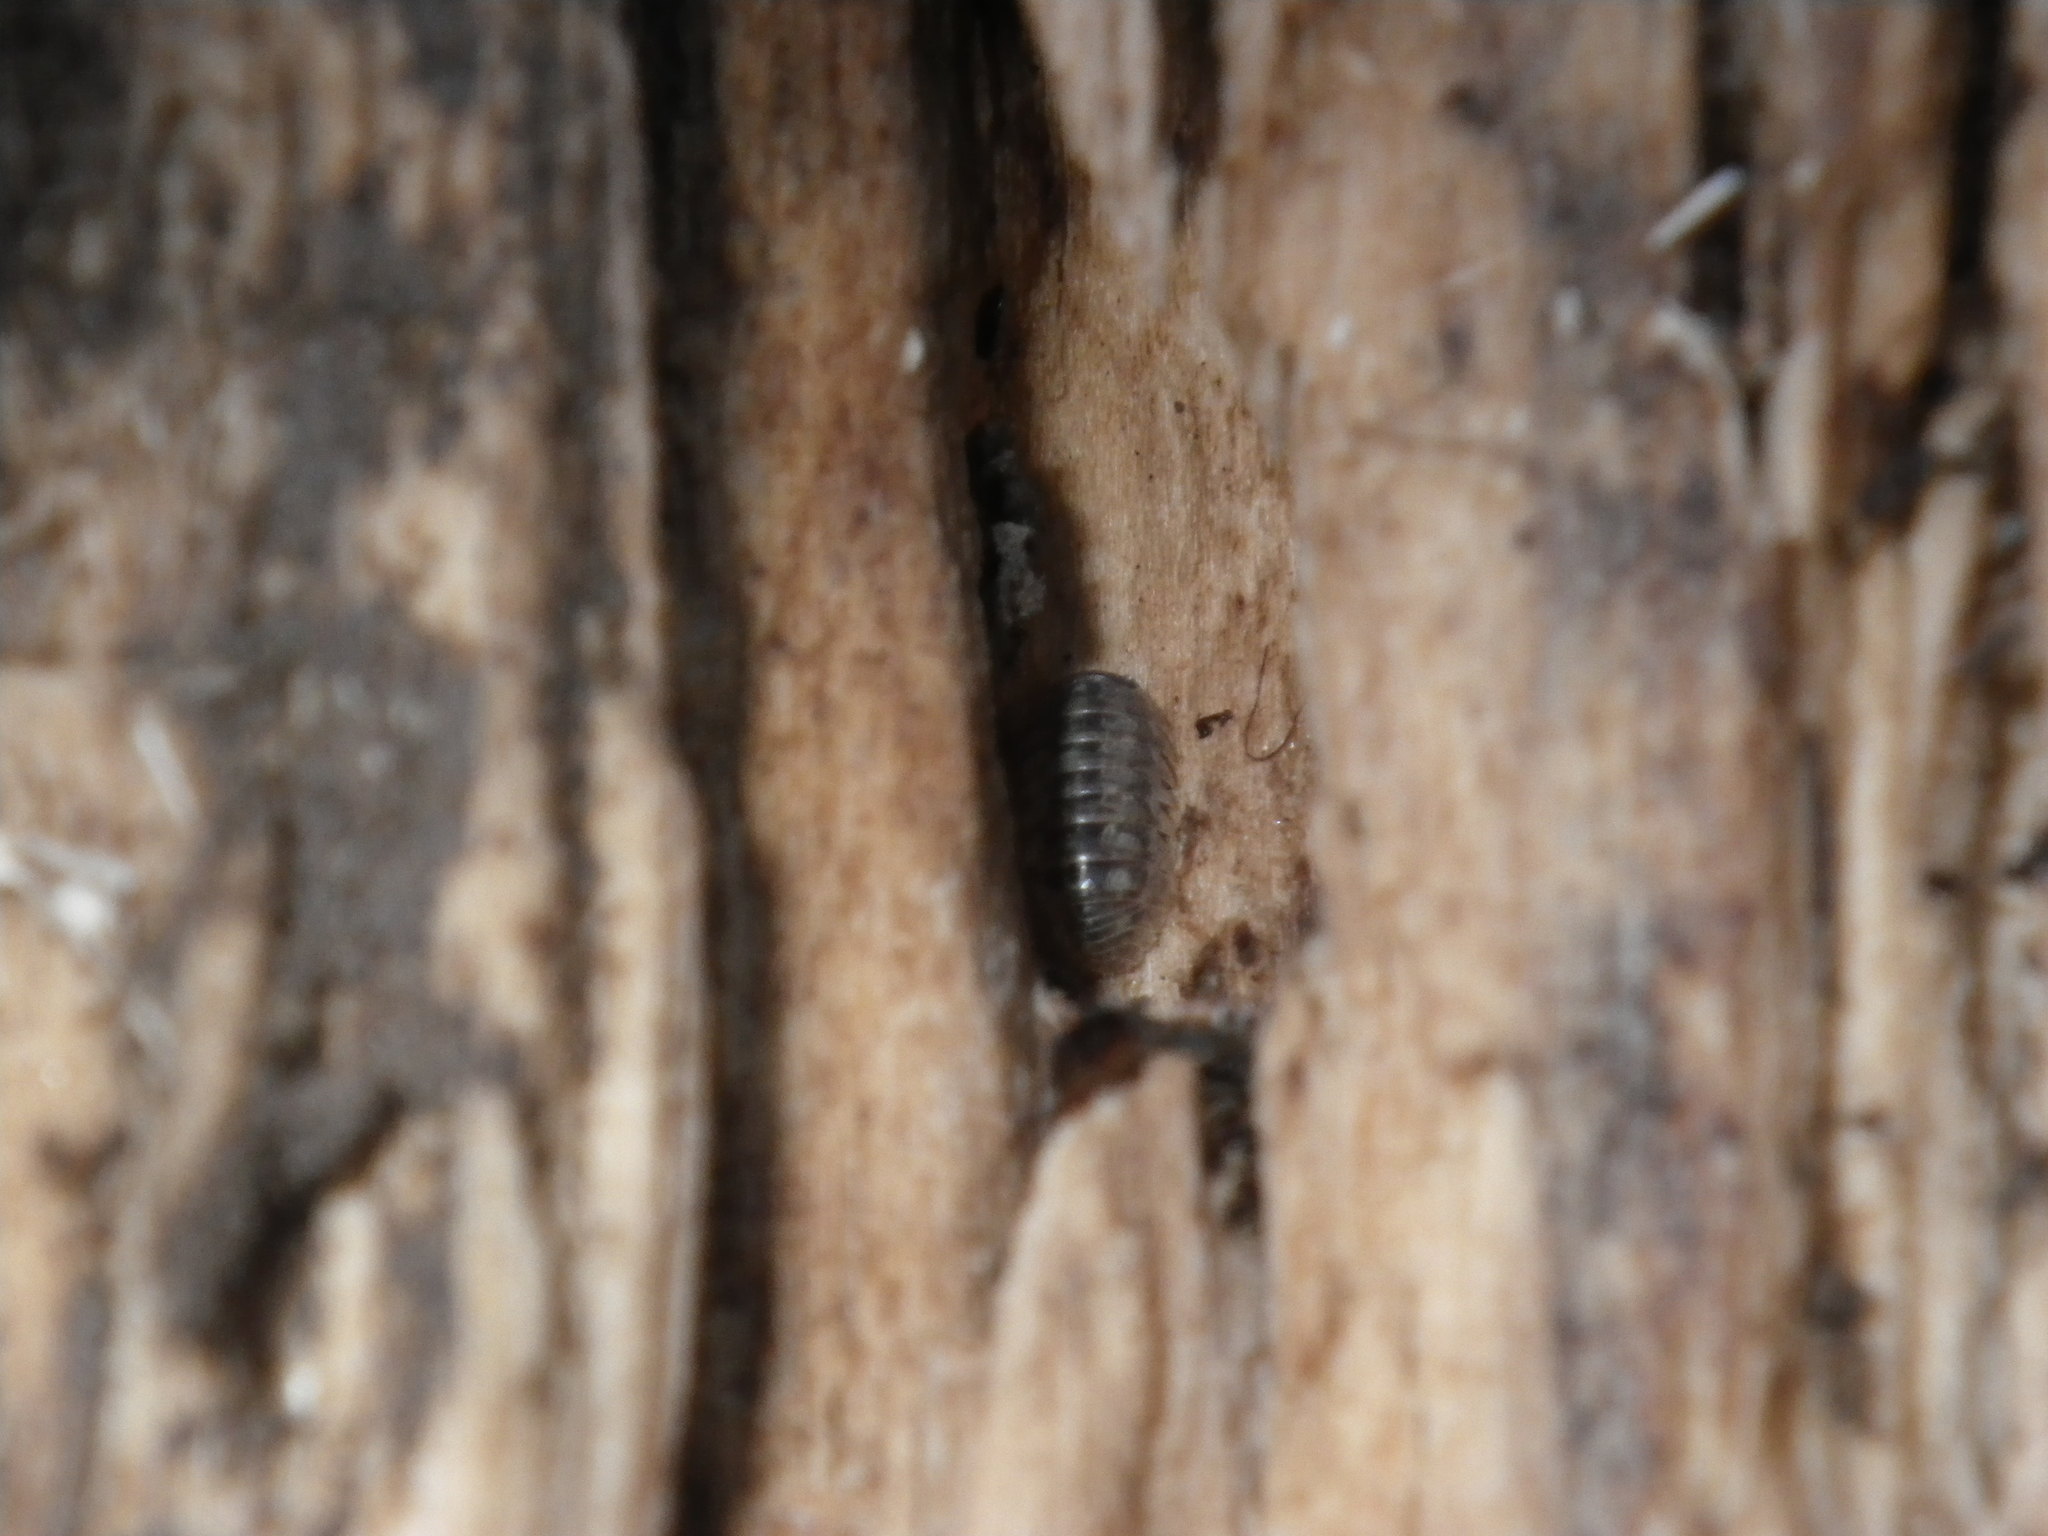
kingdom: Animalia
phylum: Arthropoda
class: Malacostraca
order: Isopoda
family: Armadillidiidae
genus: Armadillidium
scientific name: Armadillidium vulgare
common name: Common pill woodlouse
